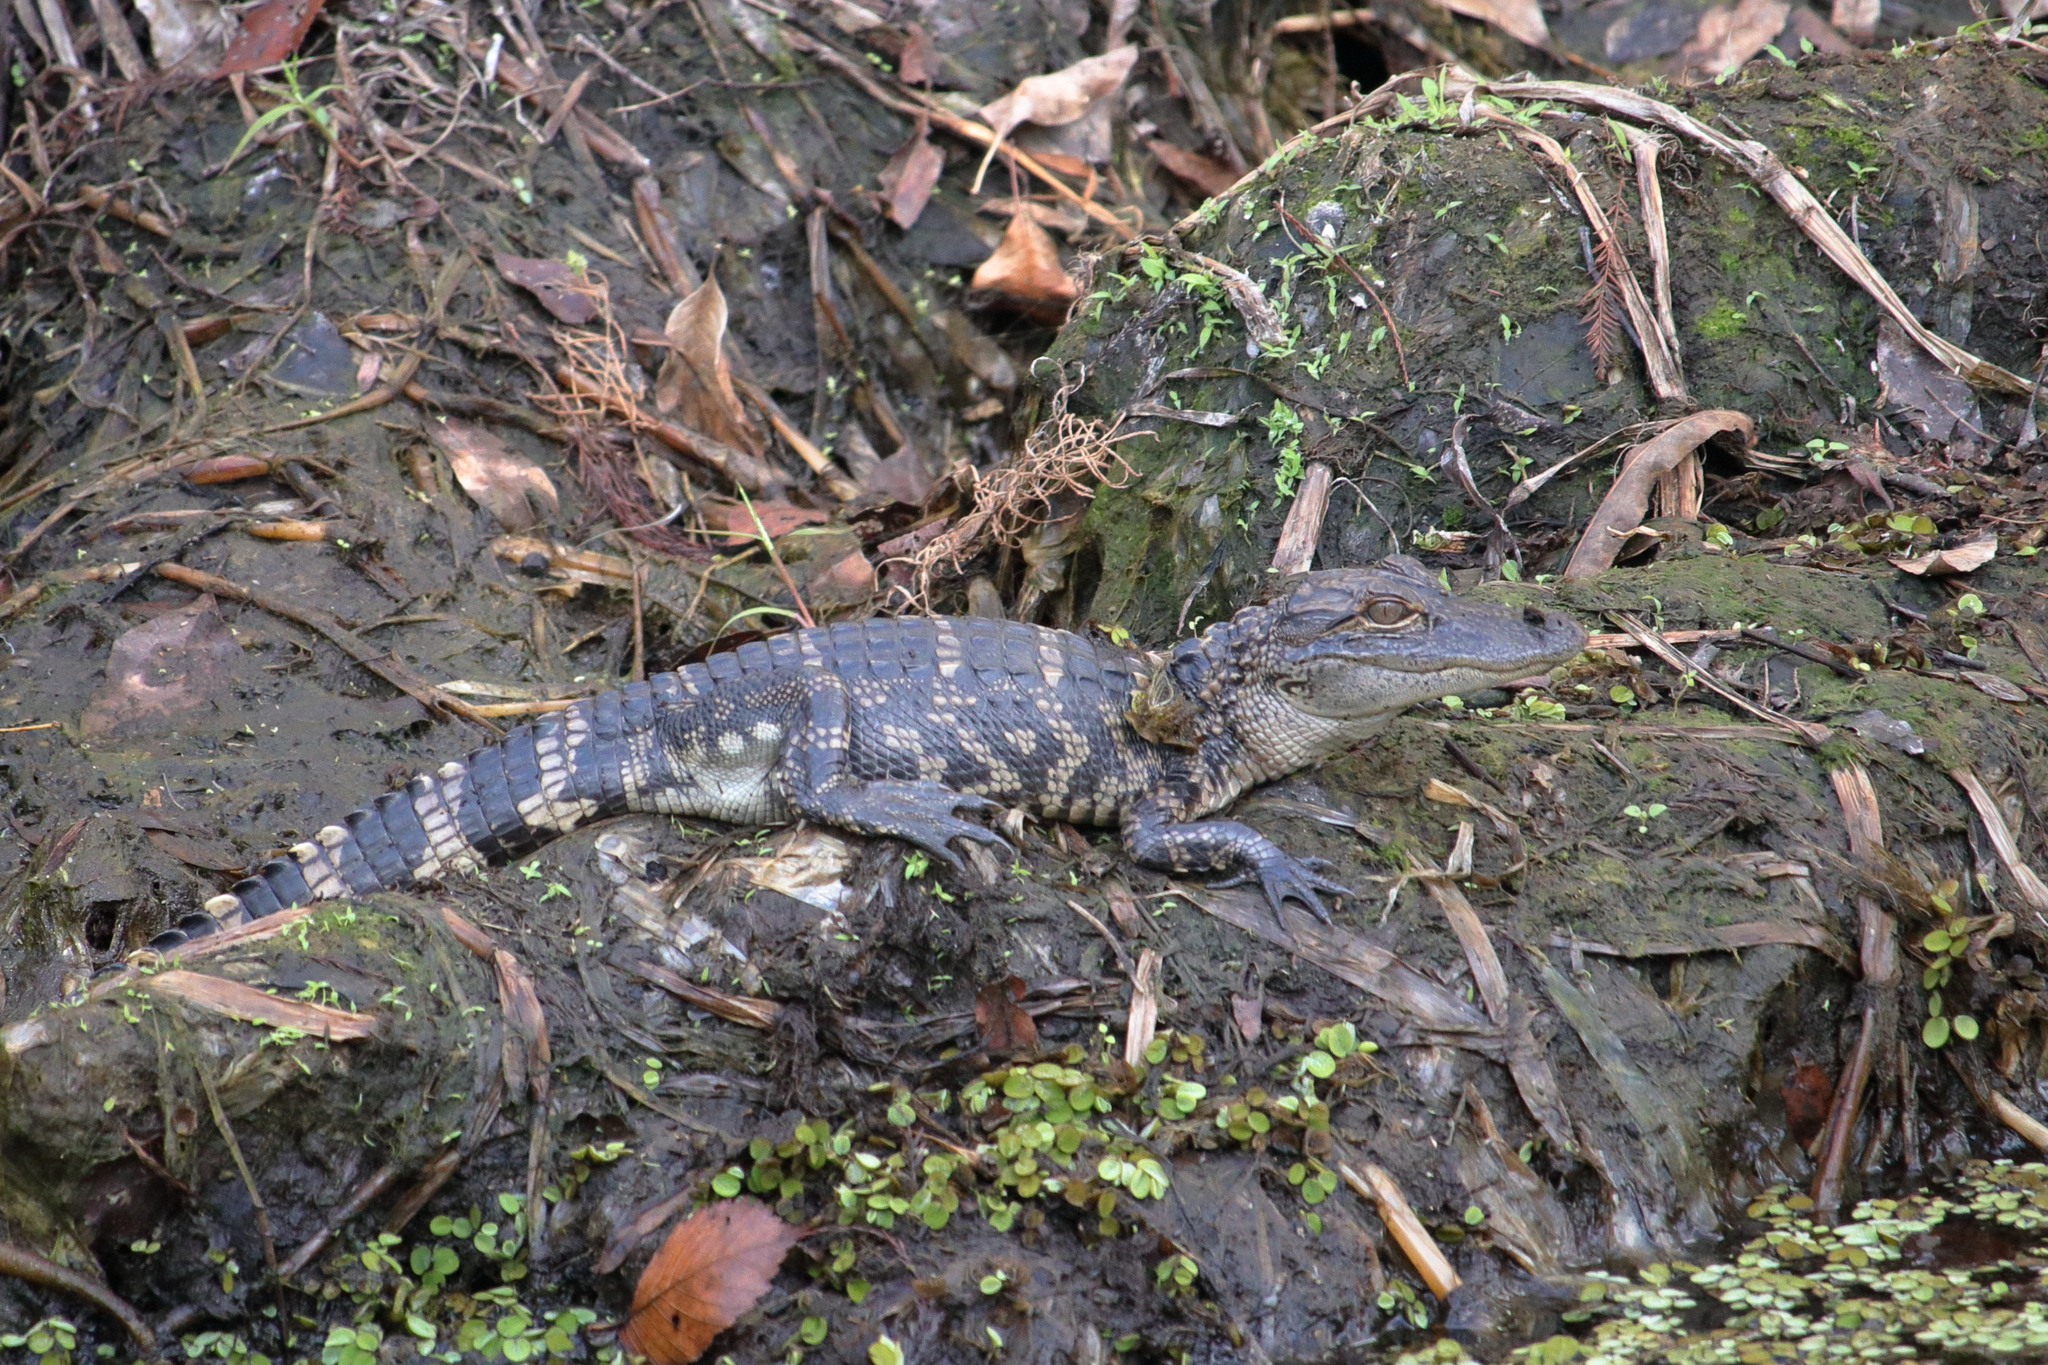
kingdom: Animalia
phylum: Chordata
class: Crocodylia
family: Alligatoridae
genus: Alligator
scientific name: Alligator mississippiensis
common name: American alligator
